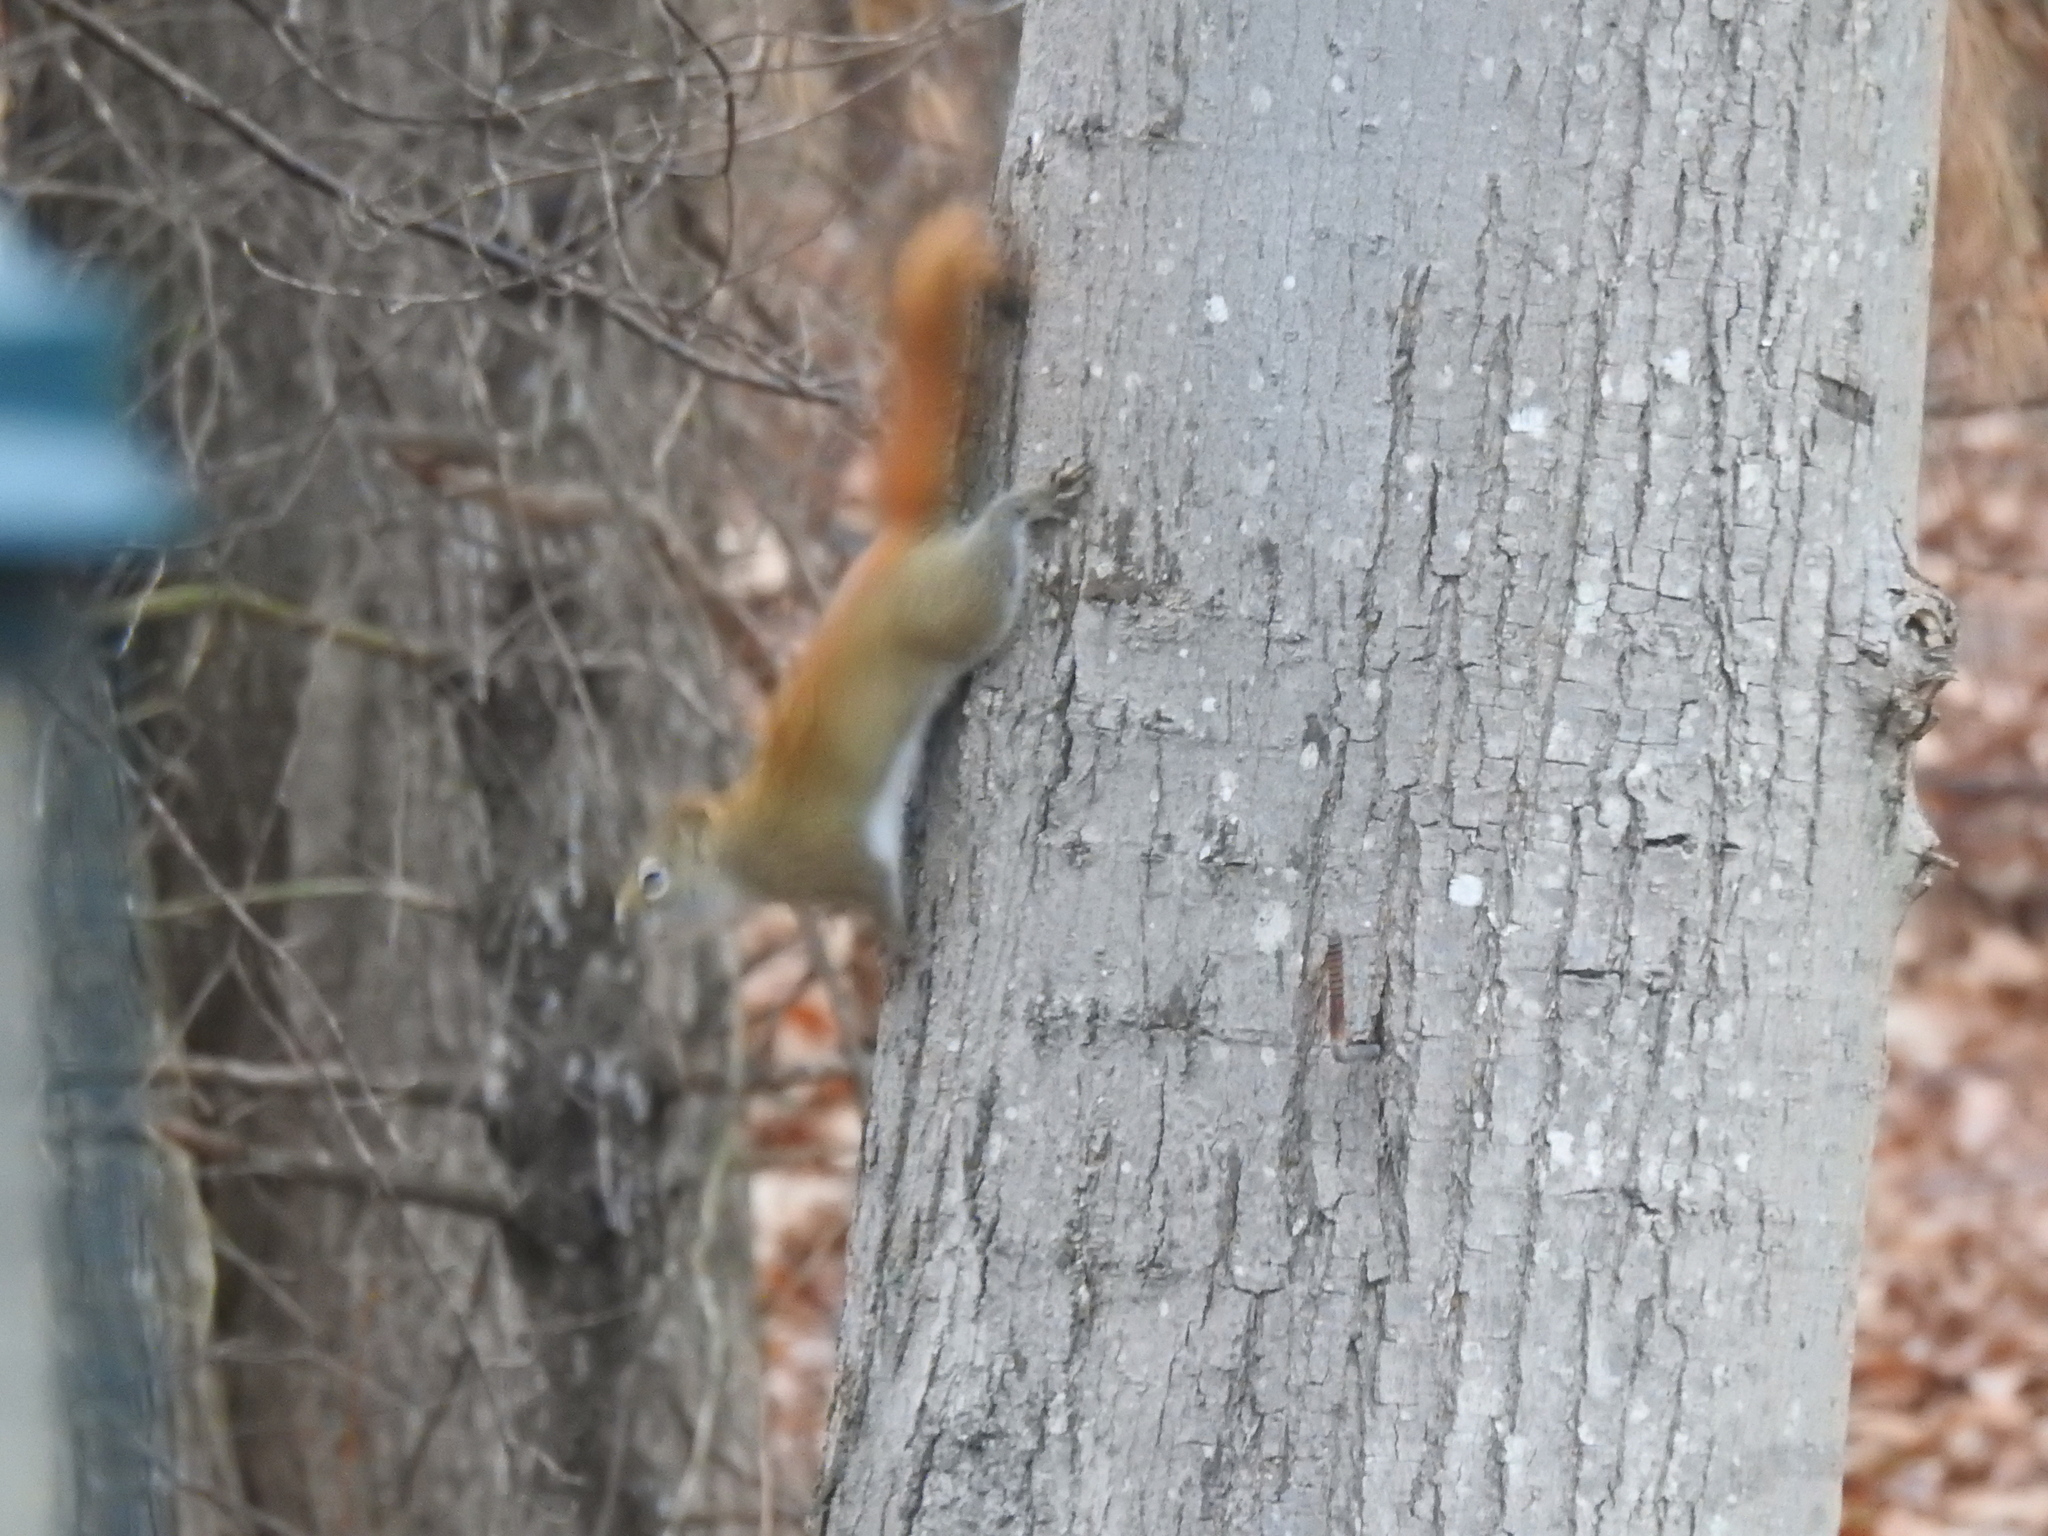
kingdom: Animalia
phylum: Chordata
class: Mammalia
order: Rodentia
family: Sciuridae
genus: Tamiasciurus
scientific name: Tamiasciurus hudsonicus
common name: Red squirrel
